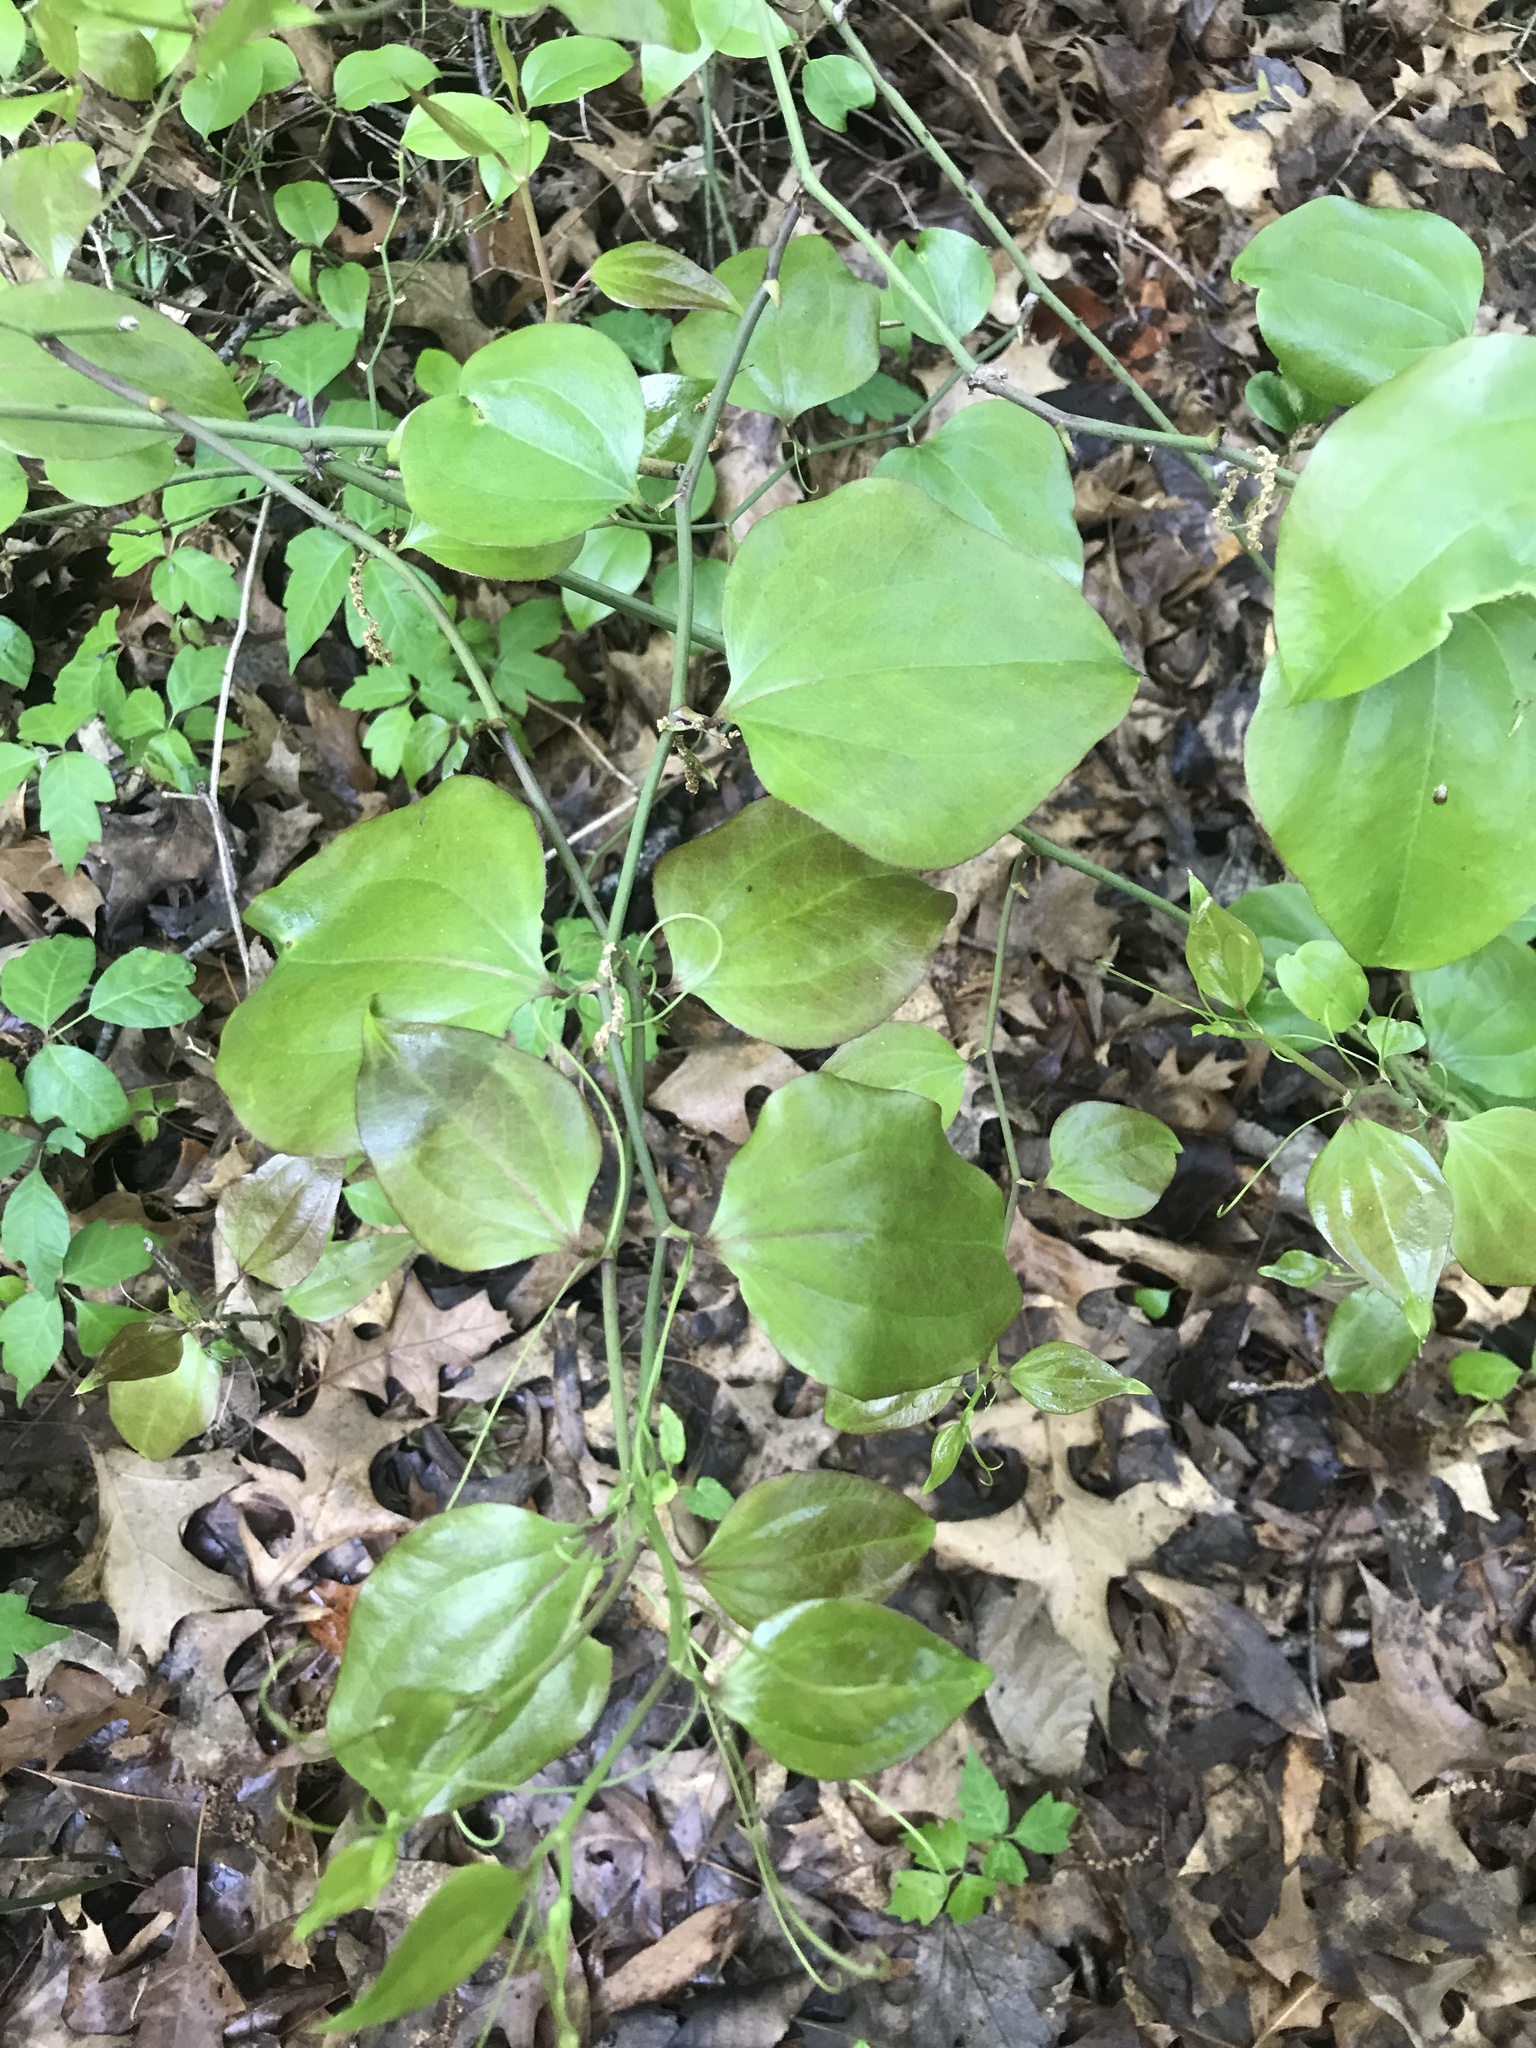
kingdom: Plantae
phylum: Tracheophyta
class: Liliopsida
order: Liliales
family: Smilacaceae
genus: Smilax
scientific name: Smilax rotundifolia
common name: Bullbriar
